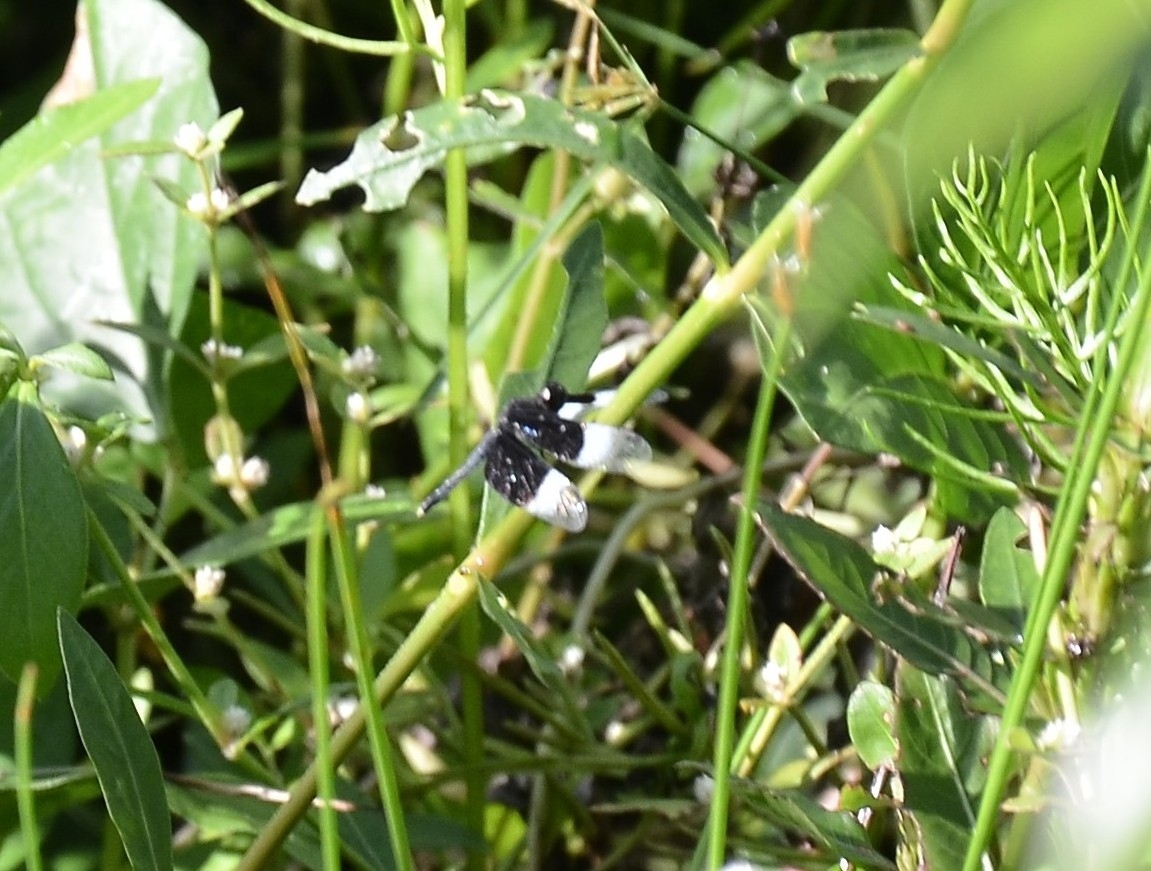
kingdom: Animalia
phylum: Arthropoda
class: Insecta
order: Odonata
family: Libellulidae
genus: Neurothemis
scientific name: Neurothemis tullia
